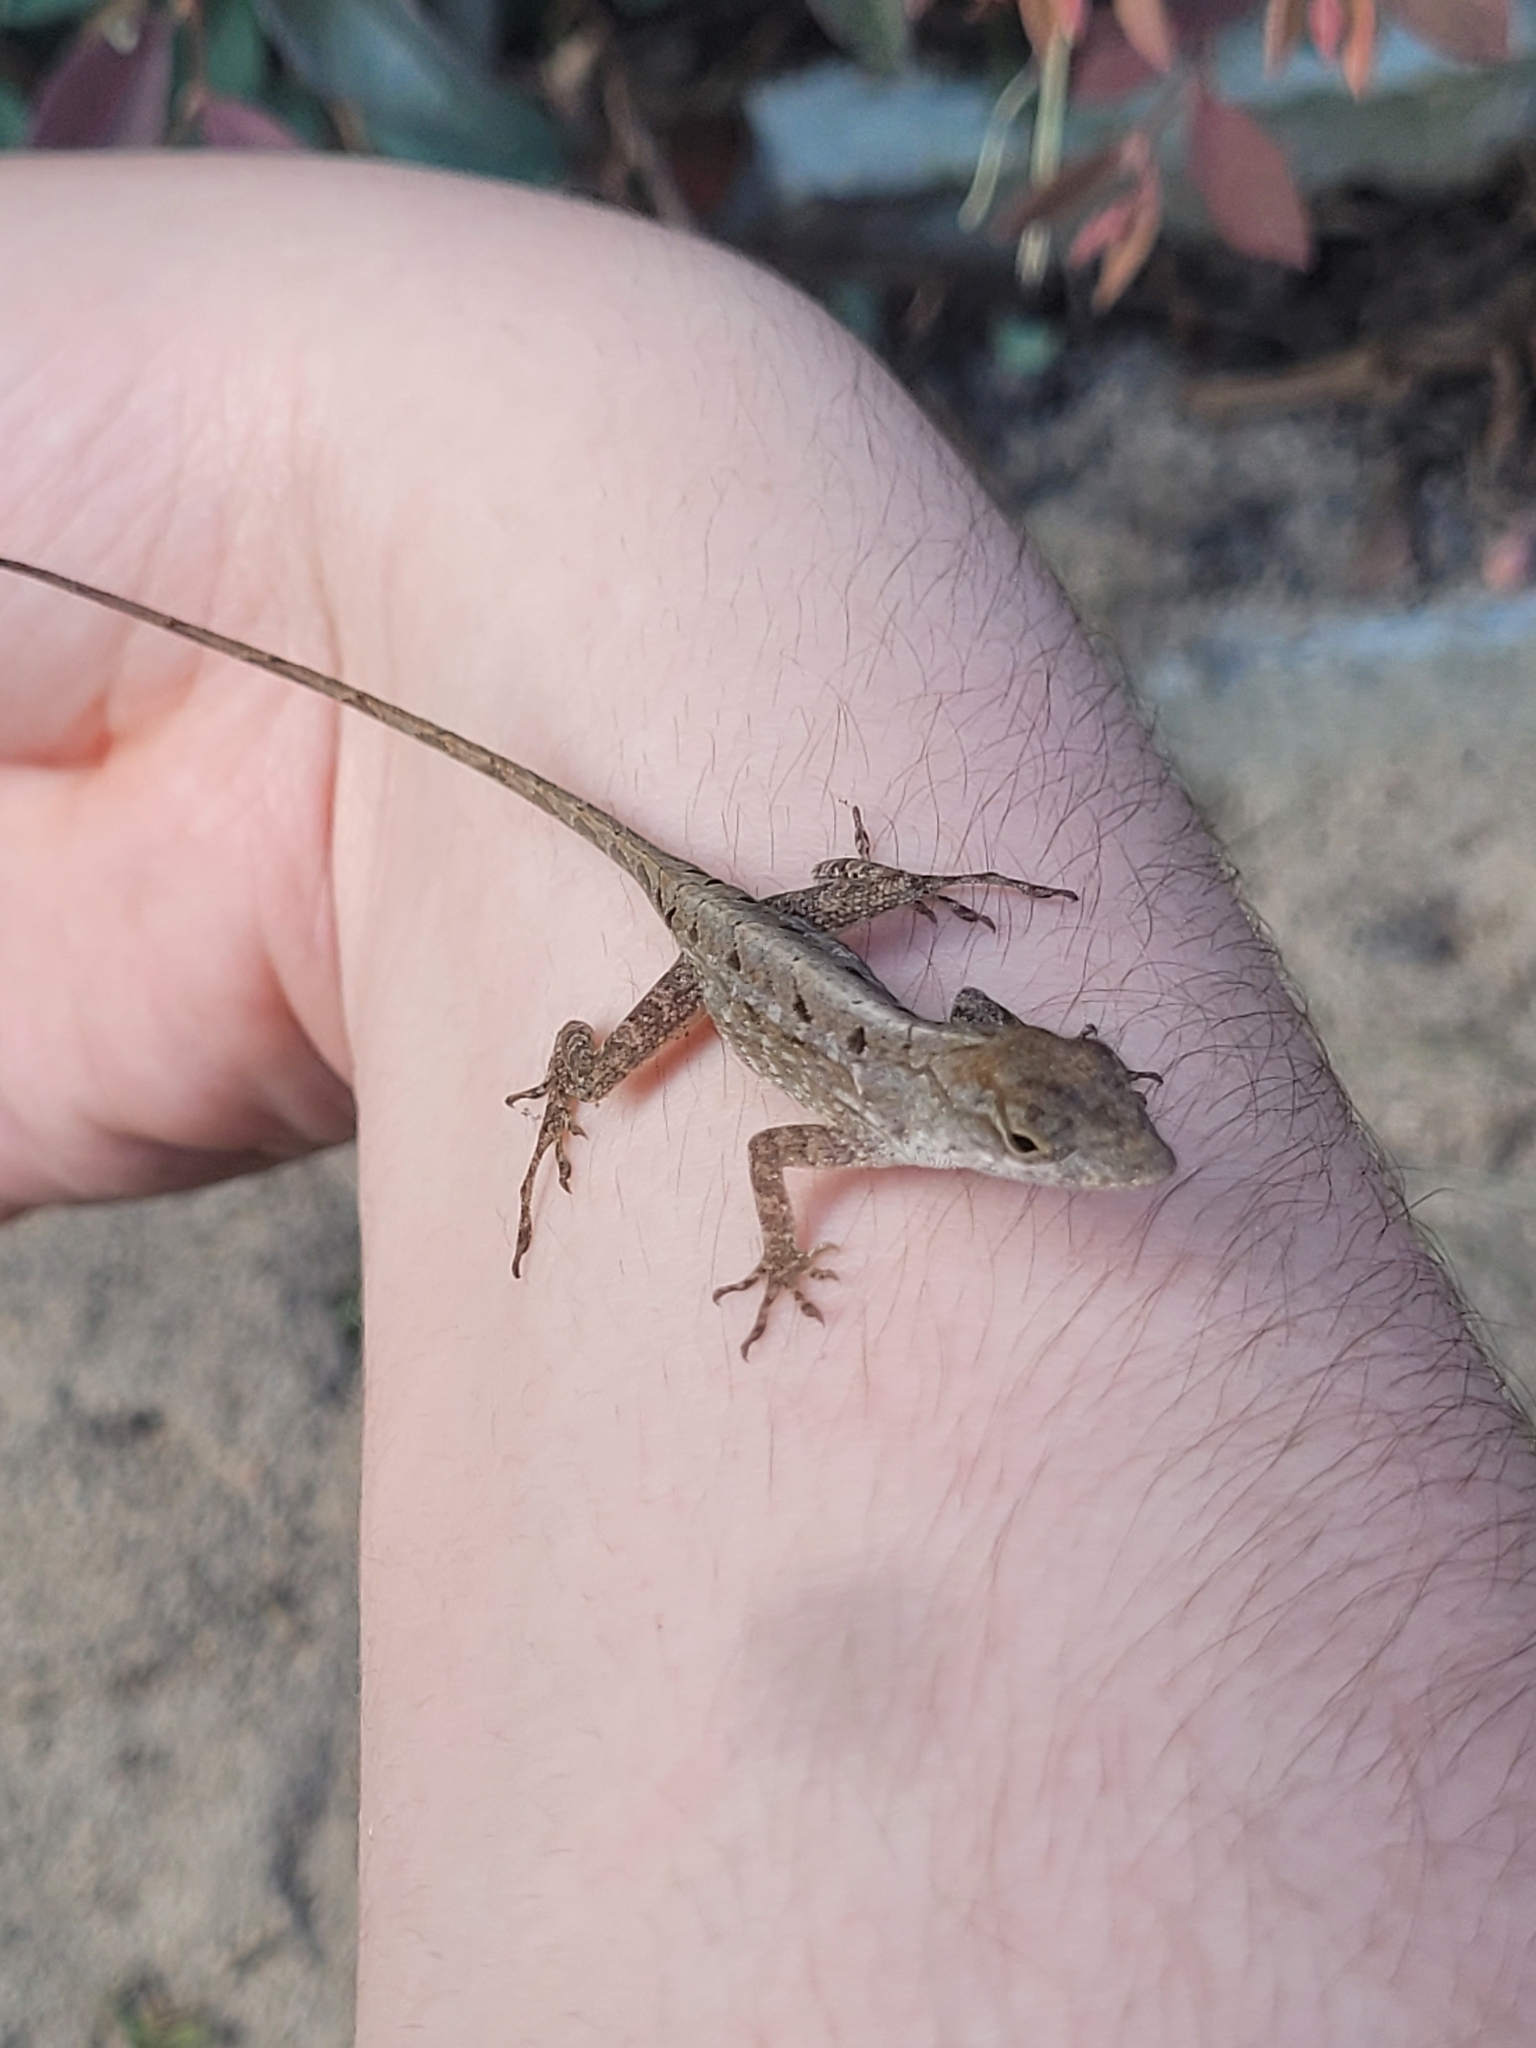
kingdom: Animalia
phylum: Chordata
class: Squamata
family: Dactyloidae
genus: Anolis
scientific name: Anolis sagrei
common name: Brown anole
